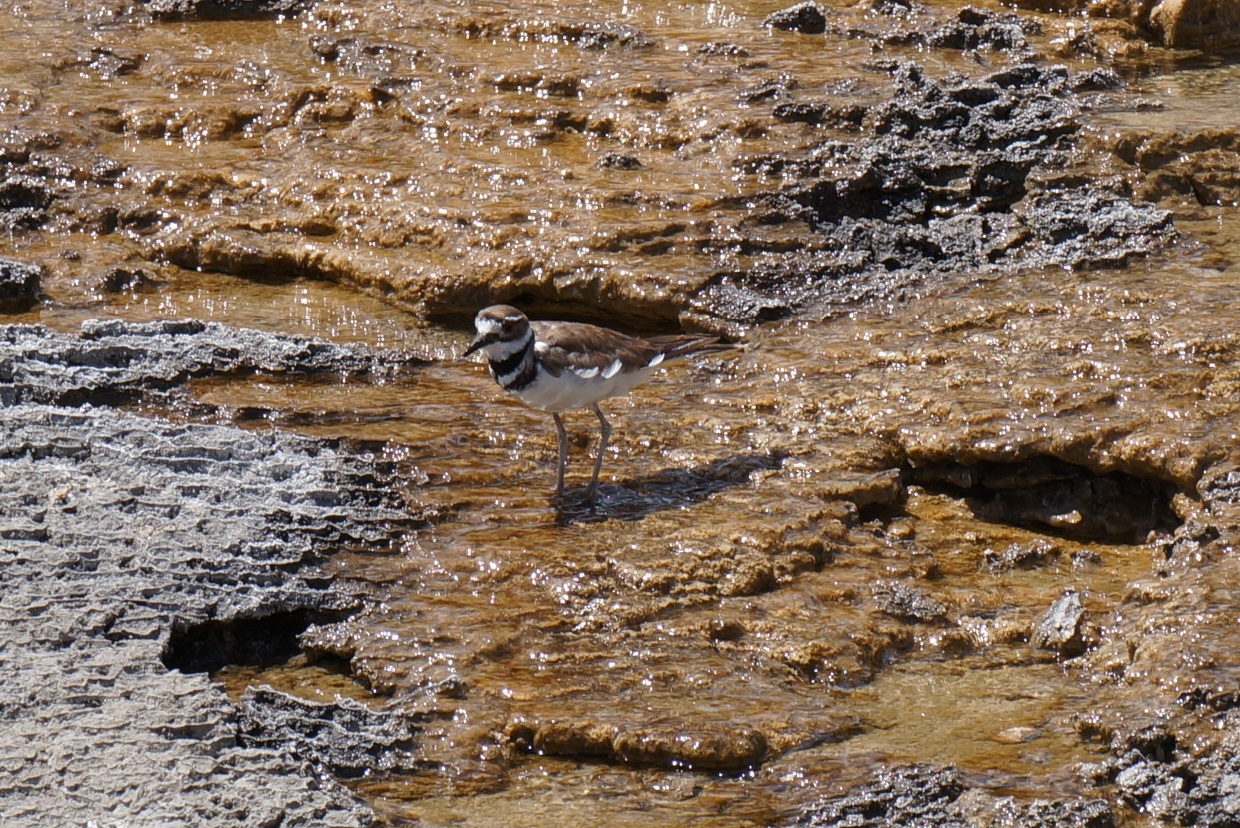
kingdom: Animalia
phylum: Chordata
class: Aves
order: Charadriiformes
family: Charadriidae
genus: Charadrius
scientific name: Charadrius vociferus
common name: Killdeer
